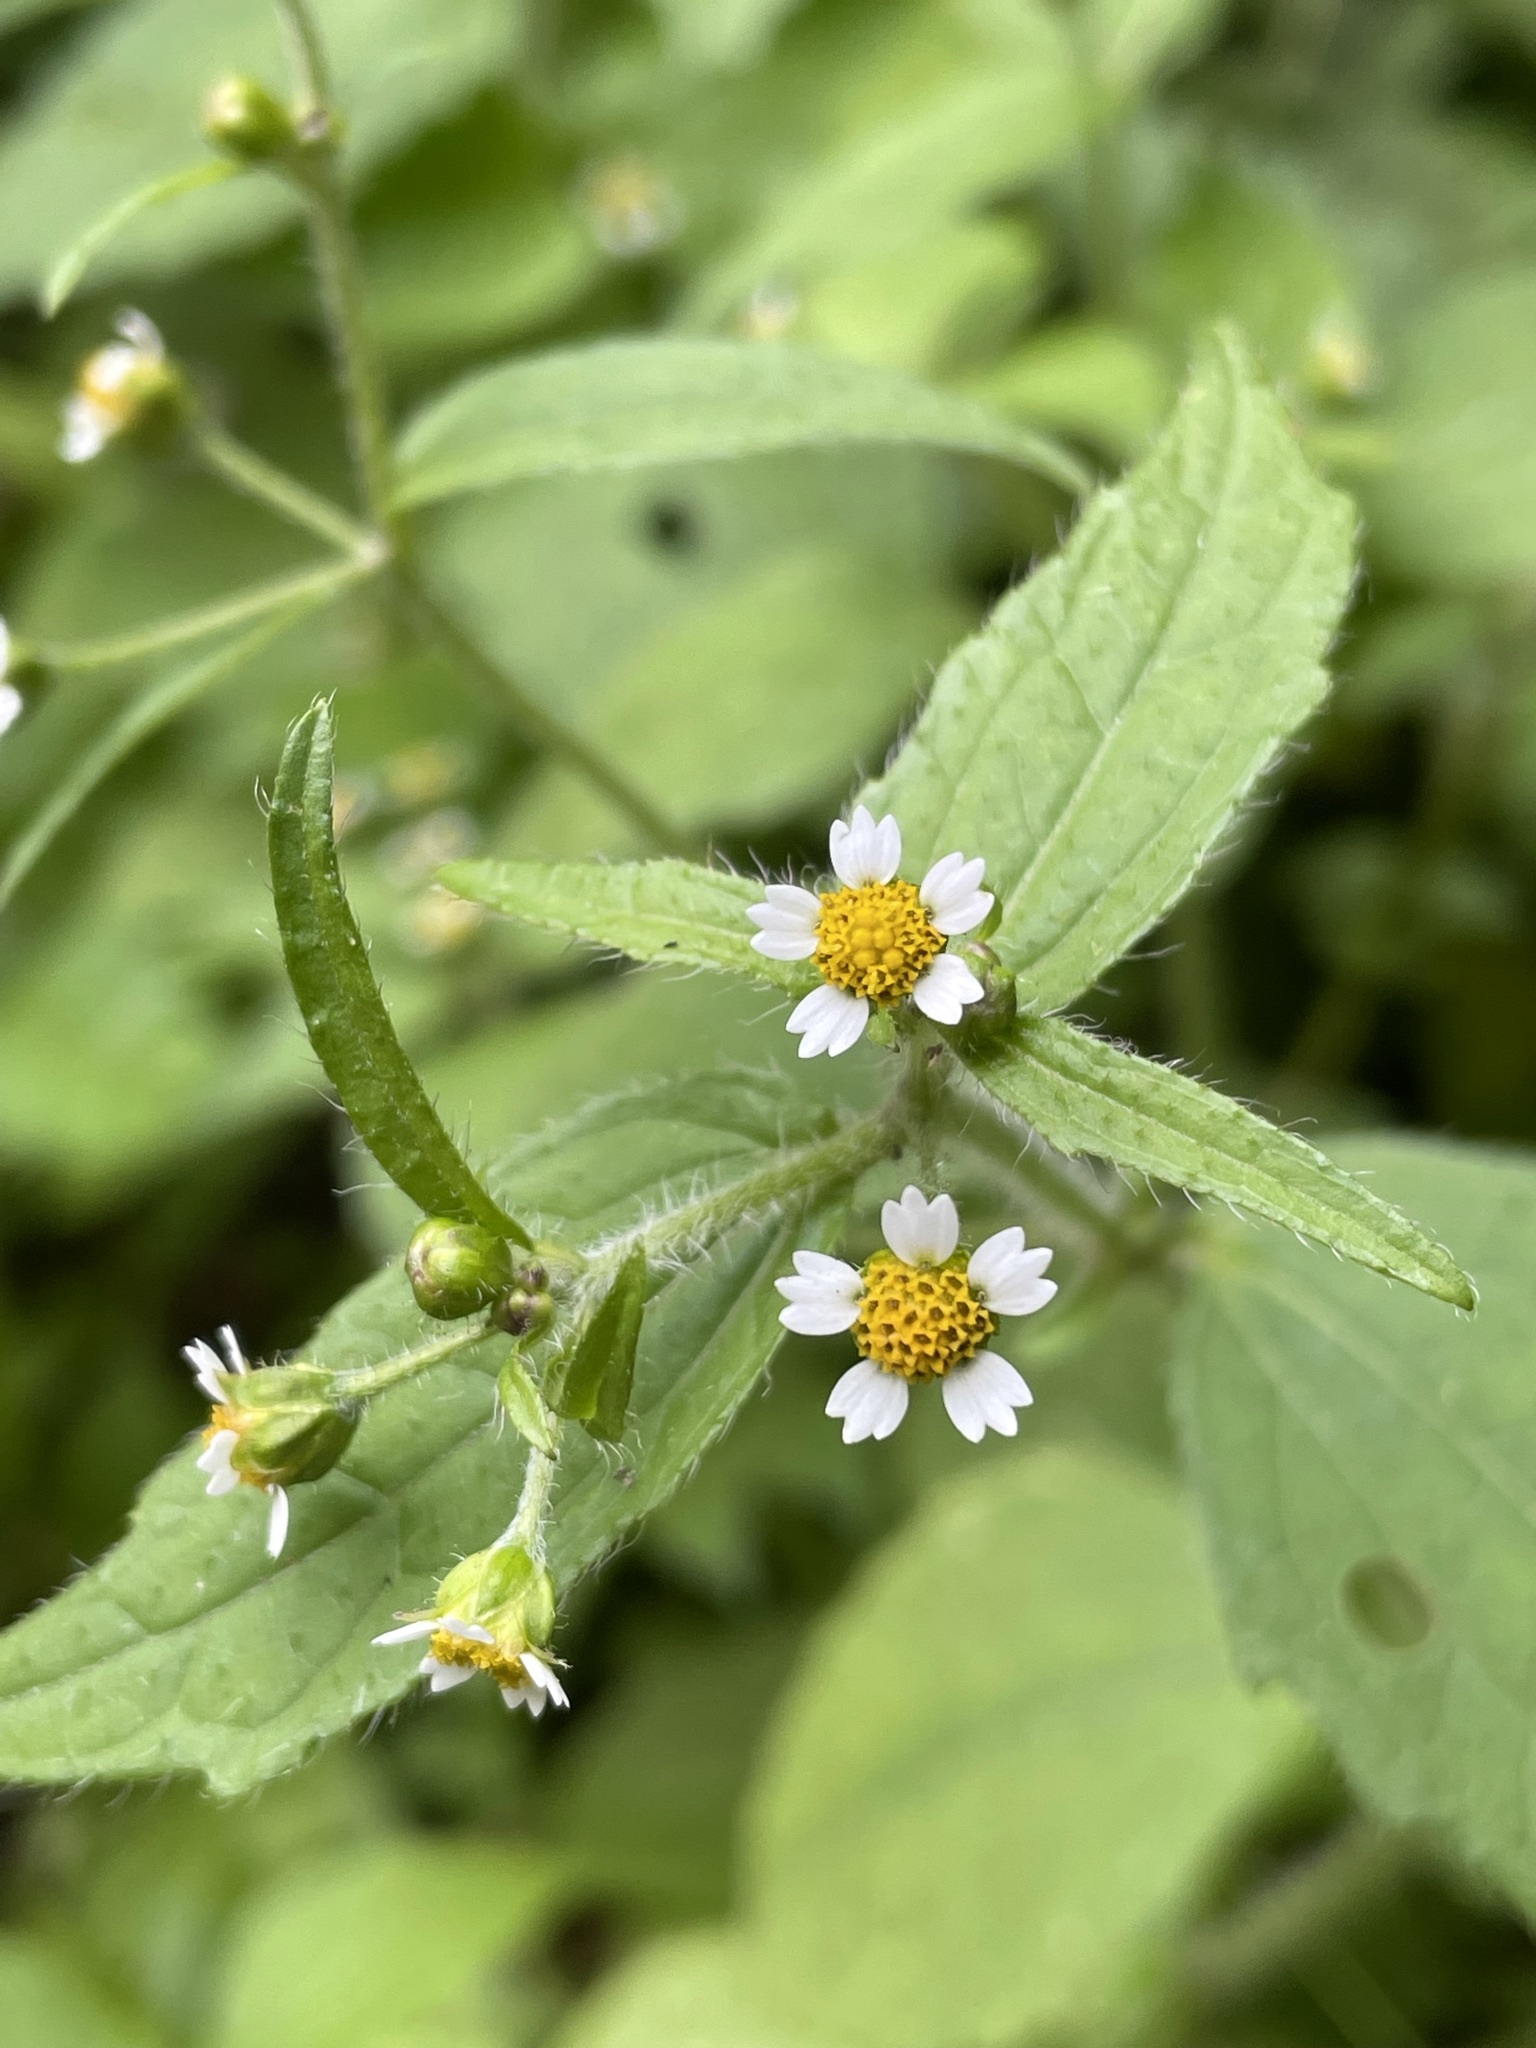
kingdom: Plantae
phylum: Tracheophyta
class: Magnoliopsida
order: Asterales
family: Asteraceae
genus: Galinsoga
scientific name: Galinsoga quadriradiata
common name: Shaggy soldier
